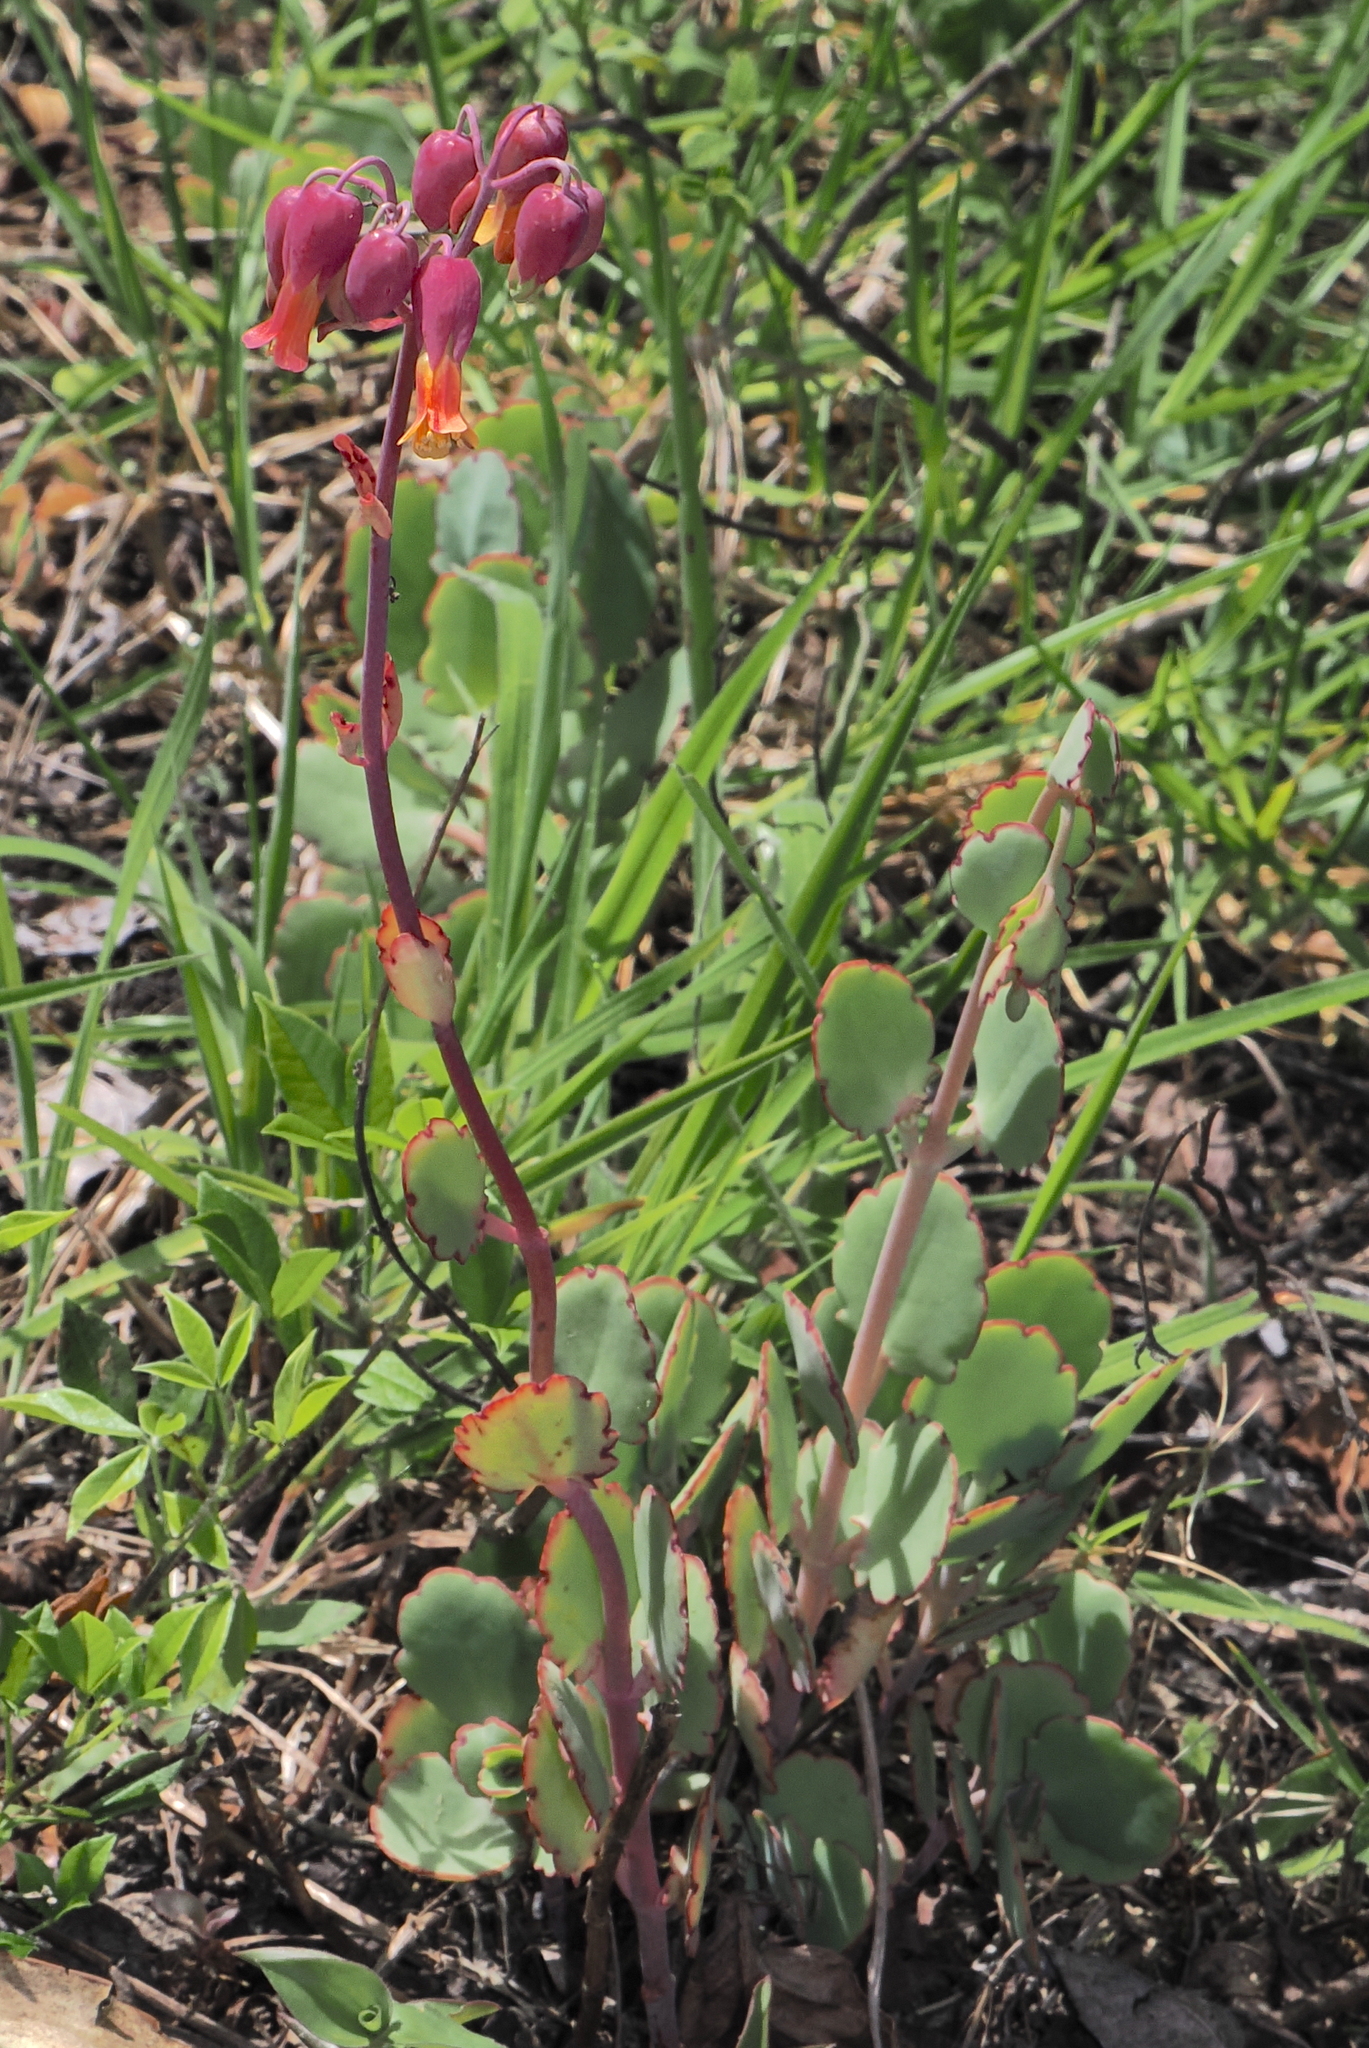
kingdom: Plantae
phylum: Tracheophyta
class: Magnoliopsida
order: Saxifragales
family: Crassulaceae
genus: Kalanchoe
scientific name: Kalanchoe laxiflora
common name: Milky widow's thrill
